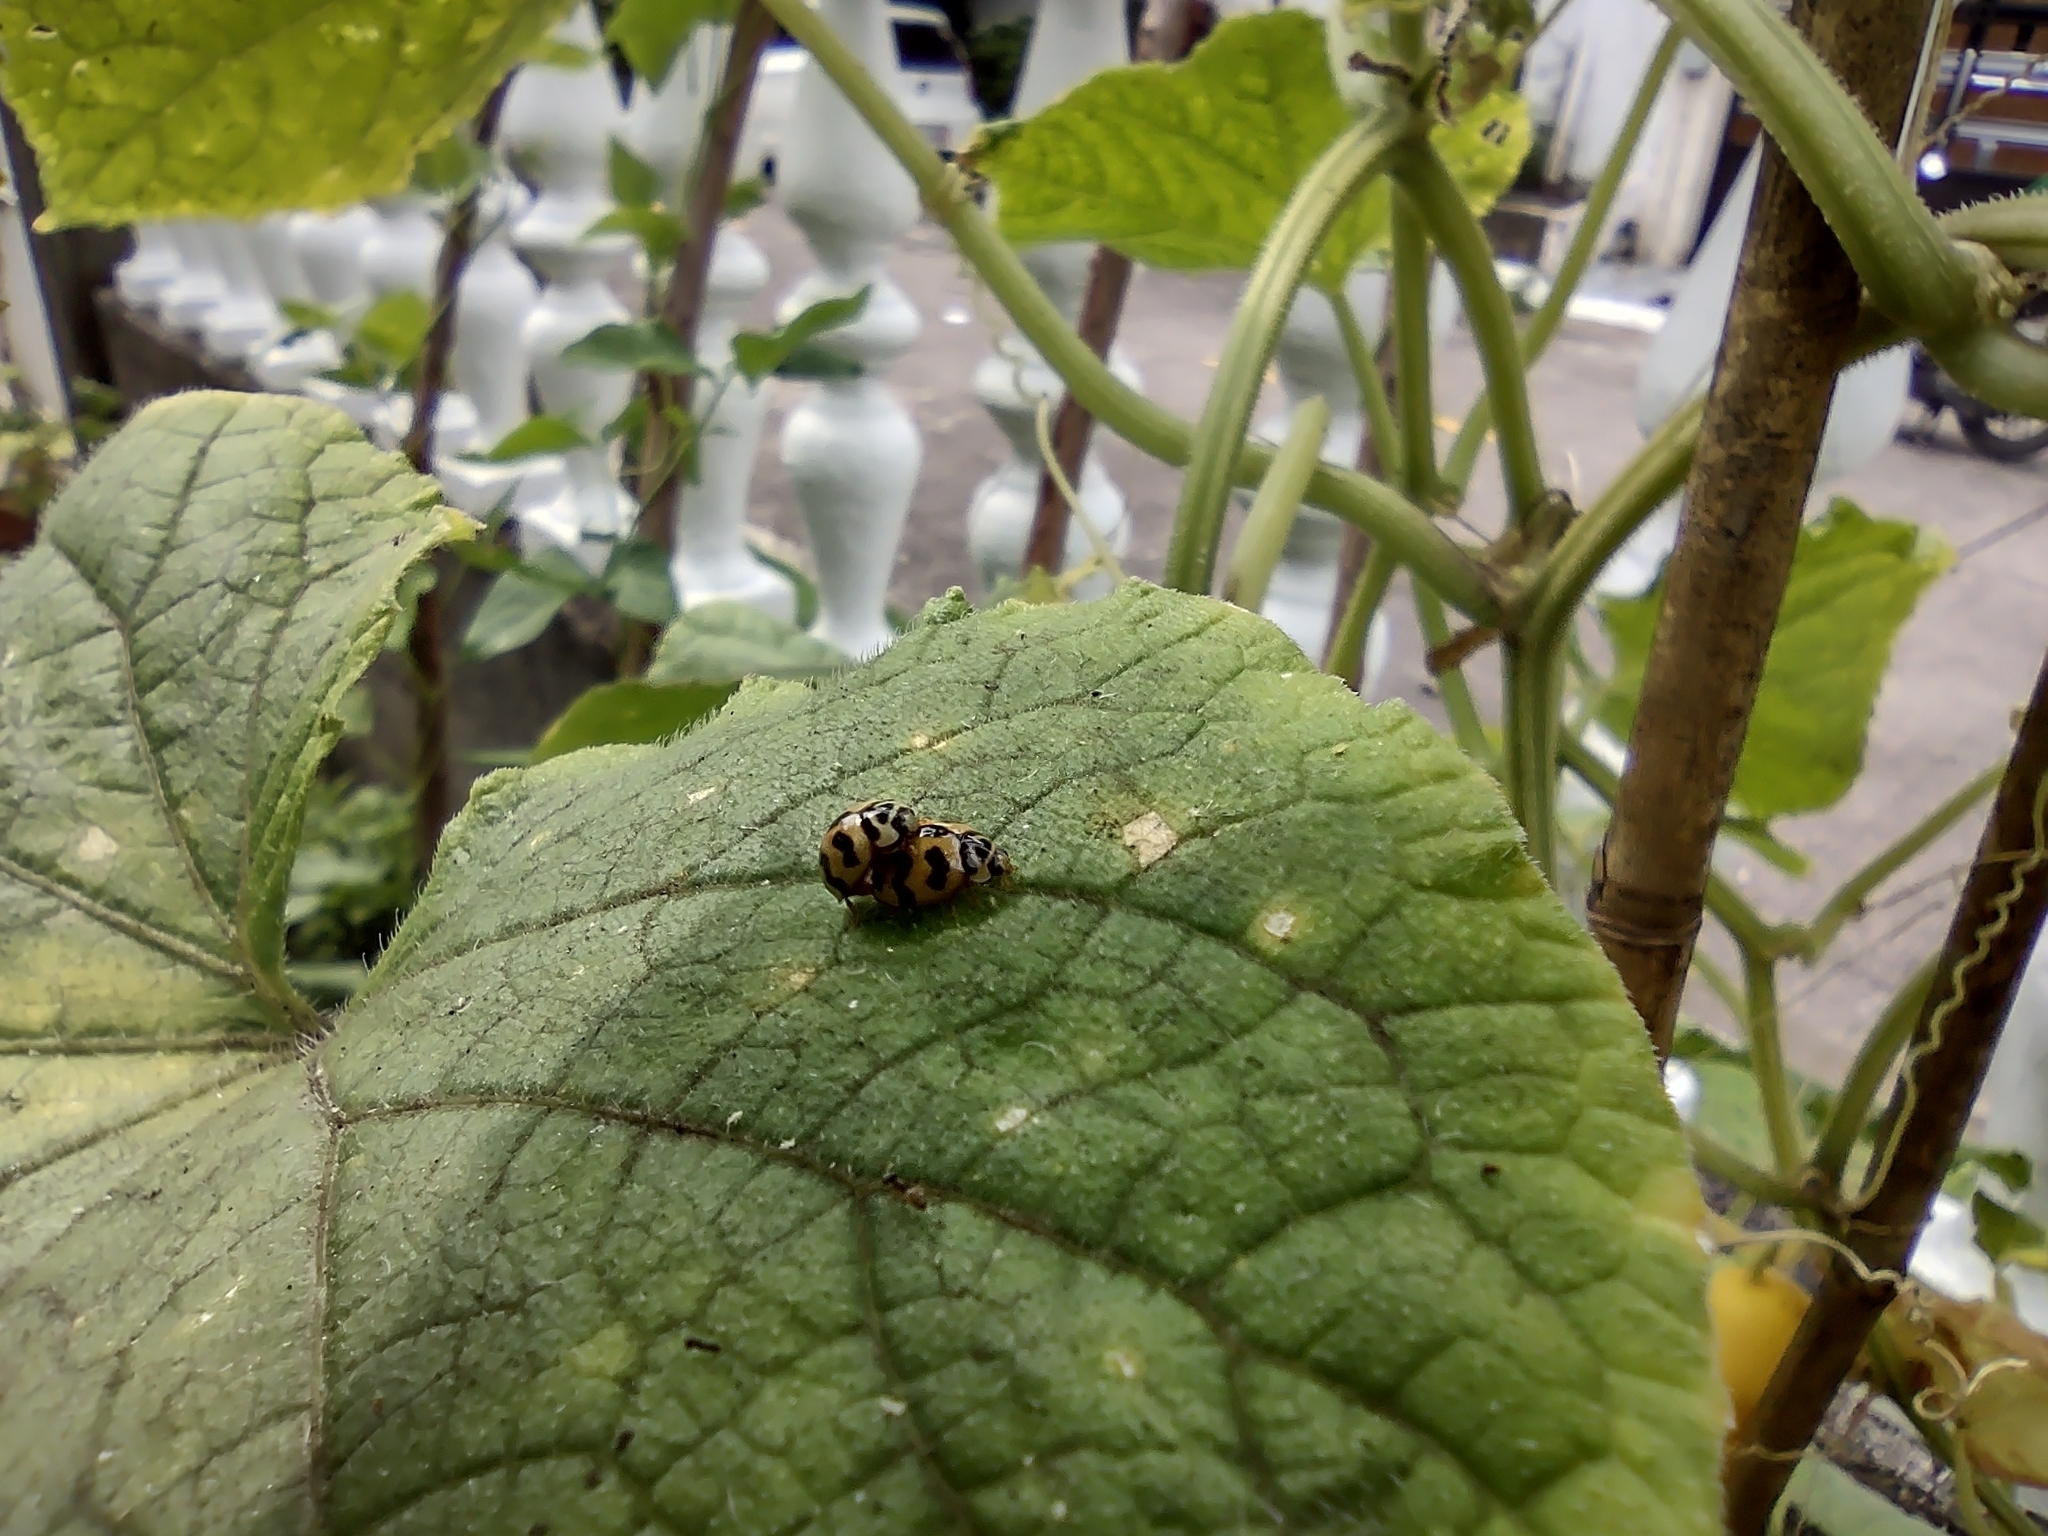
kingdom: Animalia
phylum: Arthropoda
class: Insecta
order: Coleoptera
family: Coccinellidae
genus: Cheilomenes
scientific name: Cheilomenes sexmaculata
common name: Ladybird beetle
